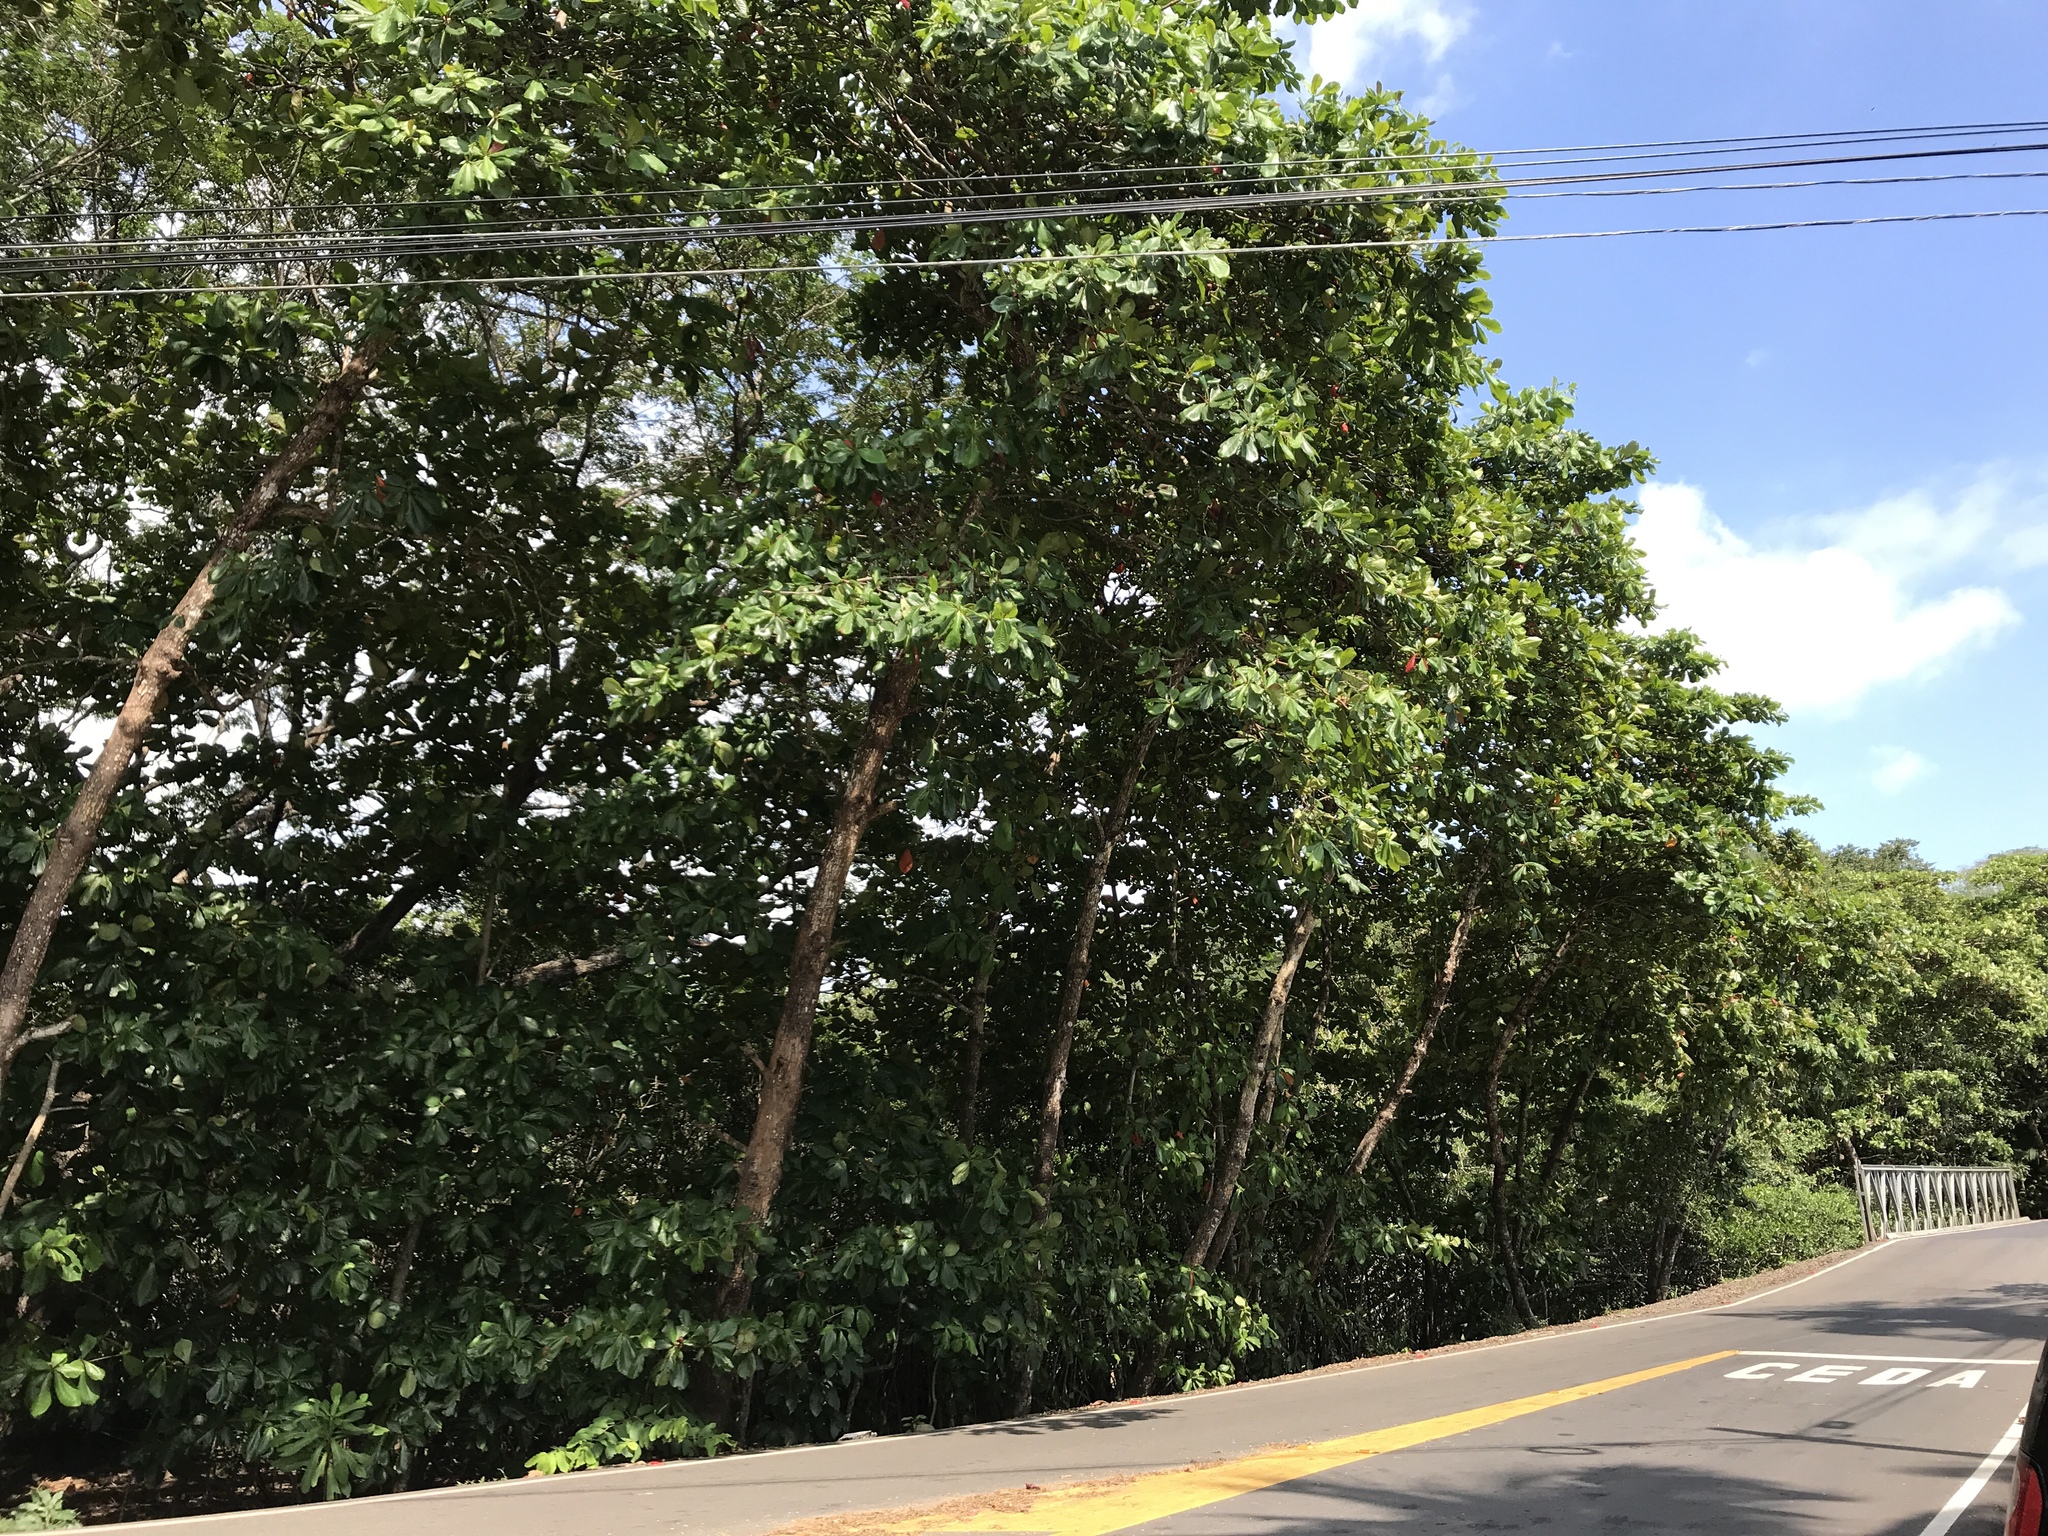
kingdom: Plantae
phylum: Tracheophyta
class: Magnoliopsida
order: Myrtales
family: Combretaceae
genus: Terminalia
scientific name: Terminalia catappa
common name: Tropical almond
